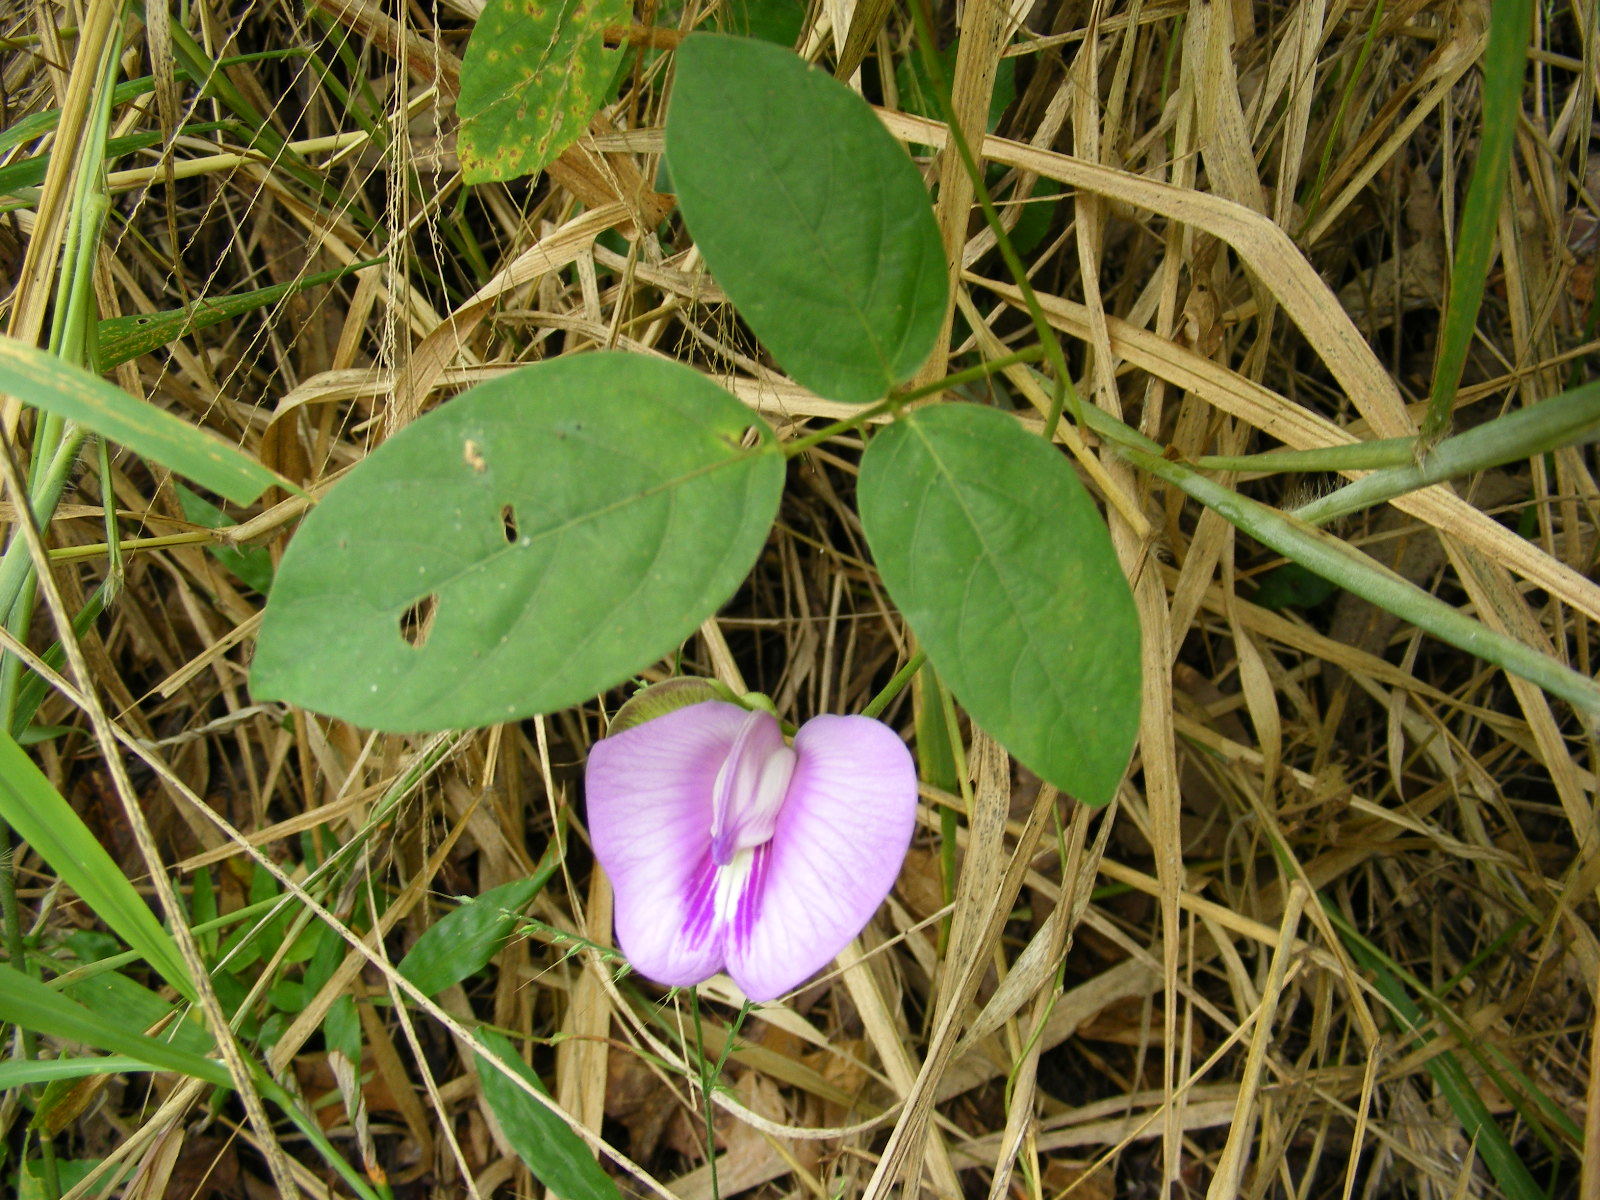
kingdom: Plantae
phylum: Tracheophyta
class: Magnoliopsida
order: Fabales
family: Fabaceae
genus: Centrosema
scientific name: Centrosema molle
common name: Soft butterfly pea
